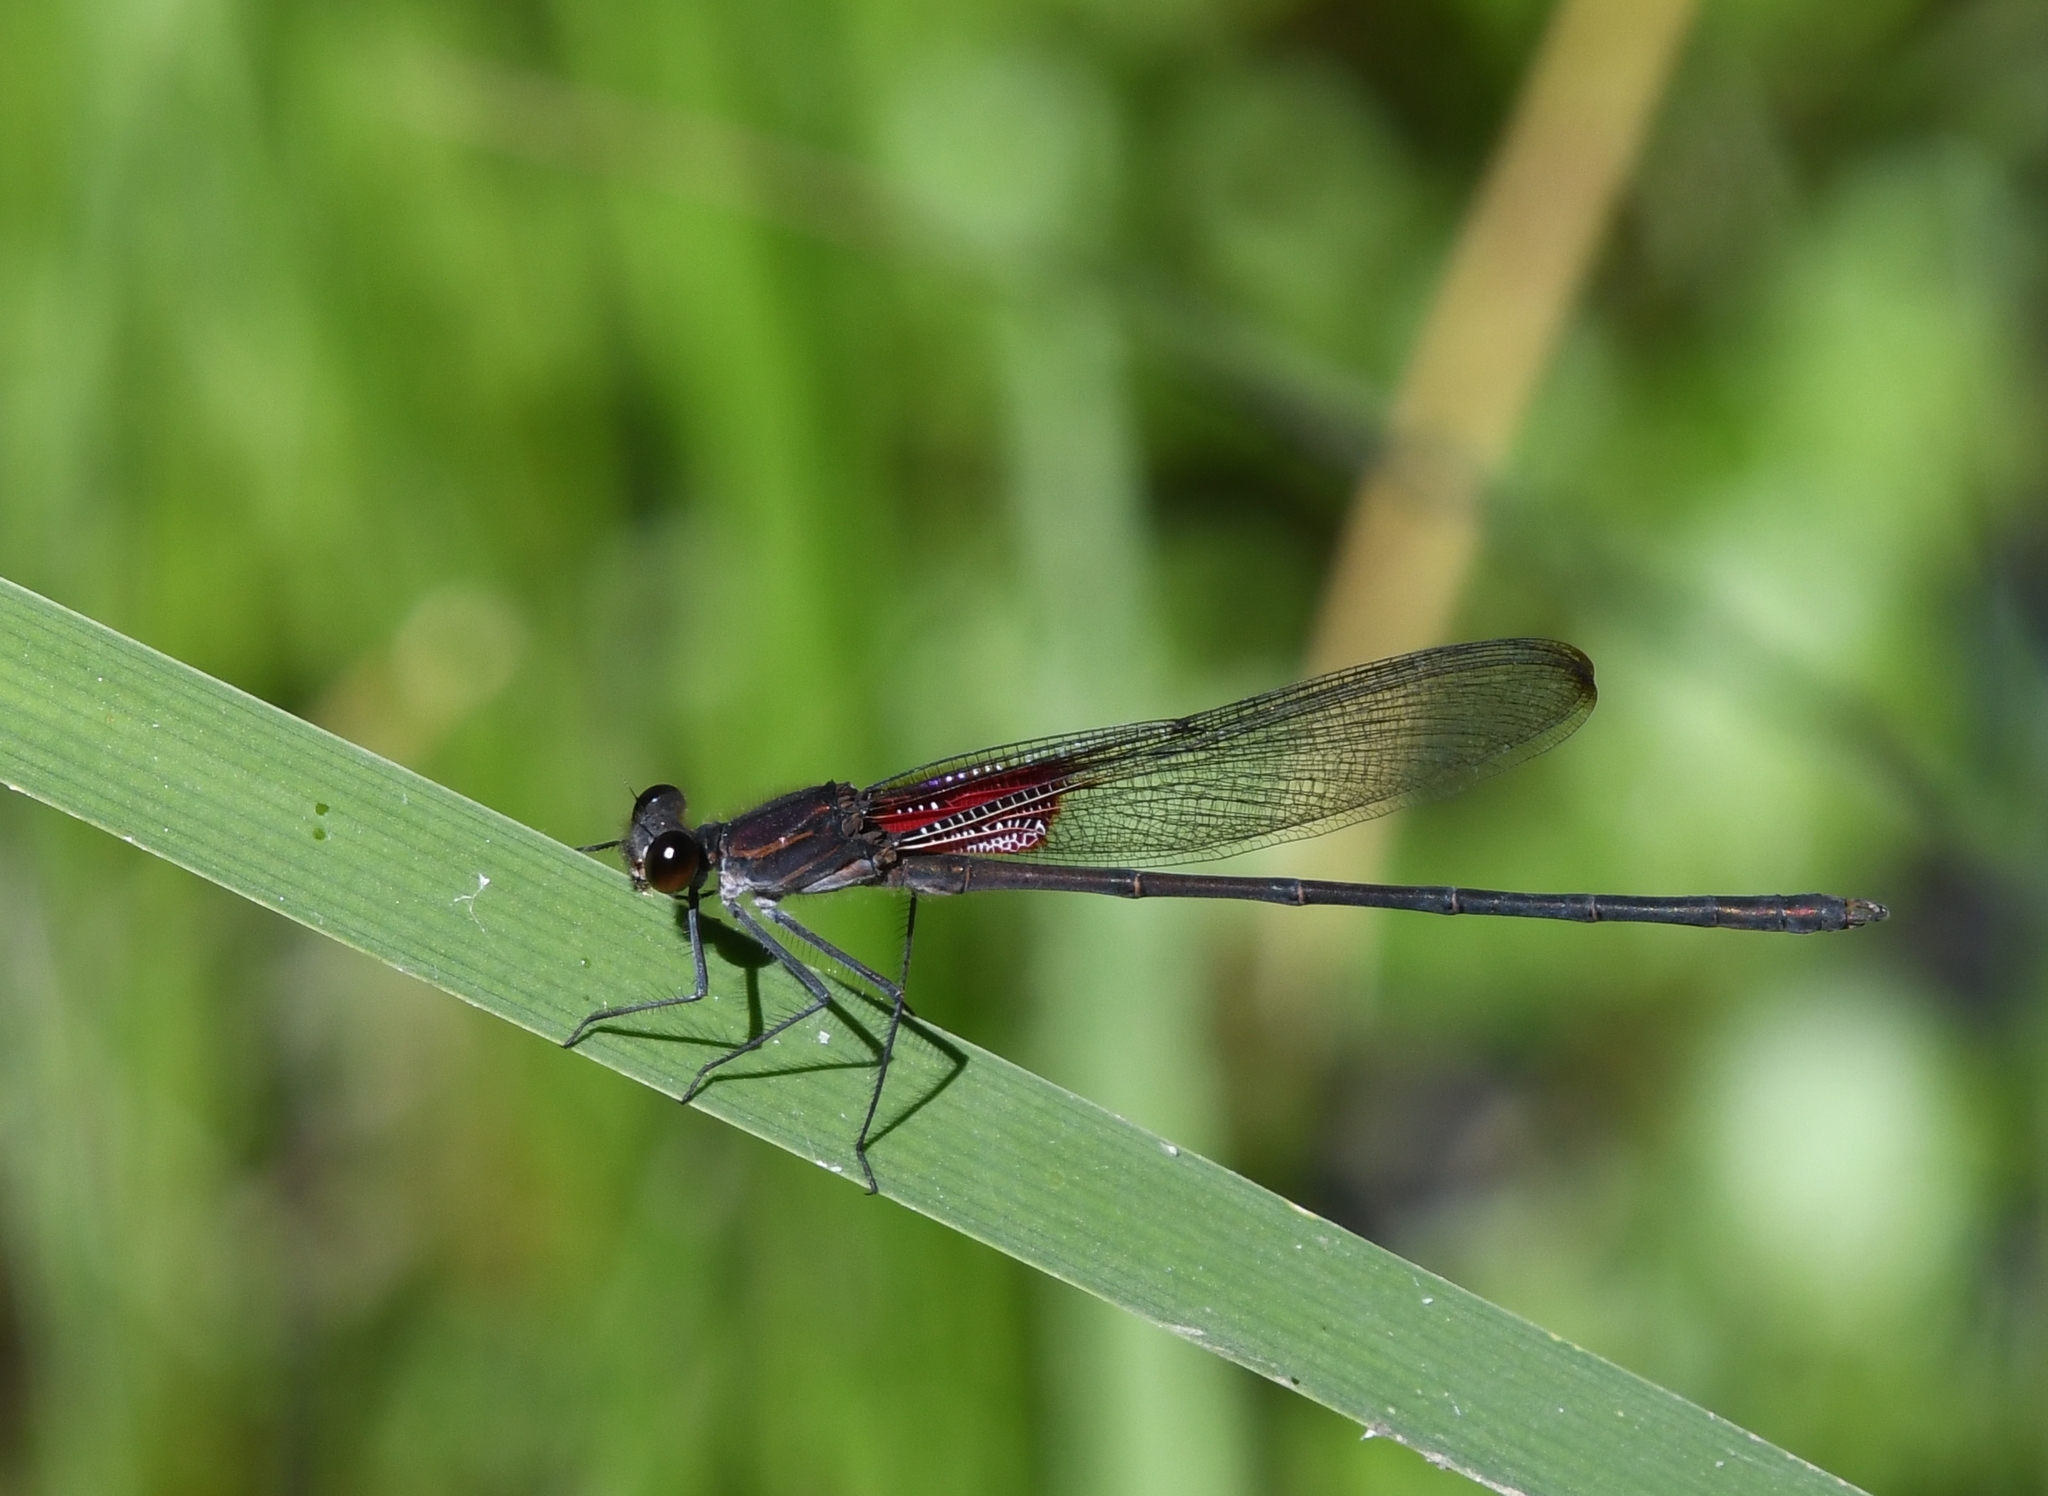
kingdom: Animalia
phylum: Arthropoda
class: Insecta
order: Odonata
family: Calopterygidae
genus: Hetaerina
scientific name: Hetaerina vulnerata
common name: Canyon rubyspot
